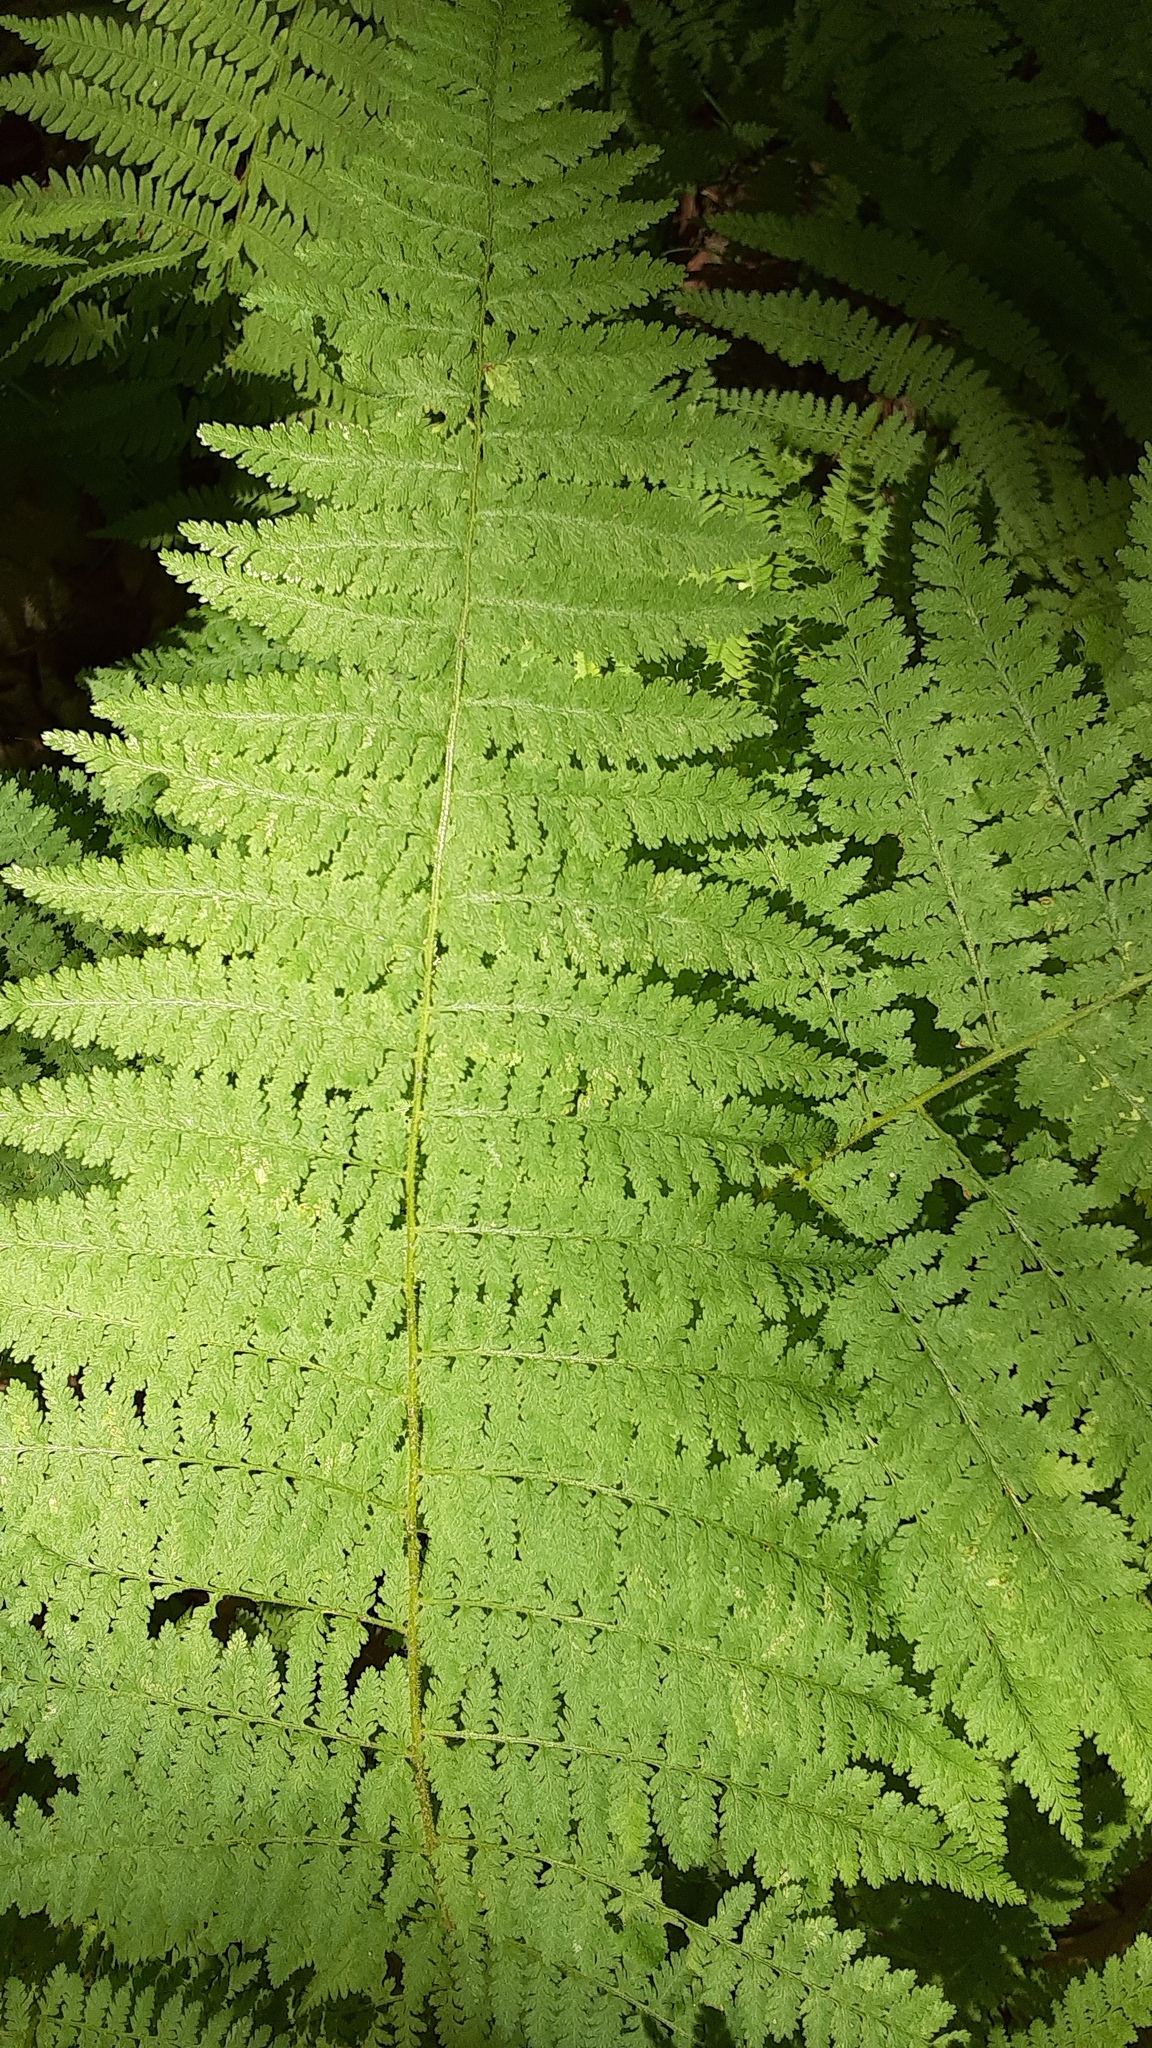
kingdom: Plantae
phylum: Tracheophyta
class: Polypodiopsida
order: Polypodiales
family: Dennstaedtiaceae
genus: Sitobolium
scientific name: Sitobolium punctilobum
